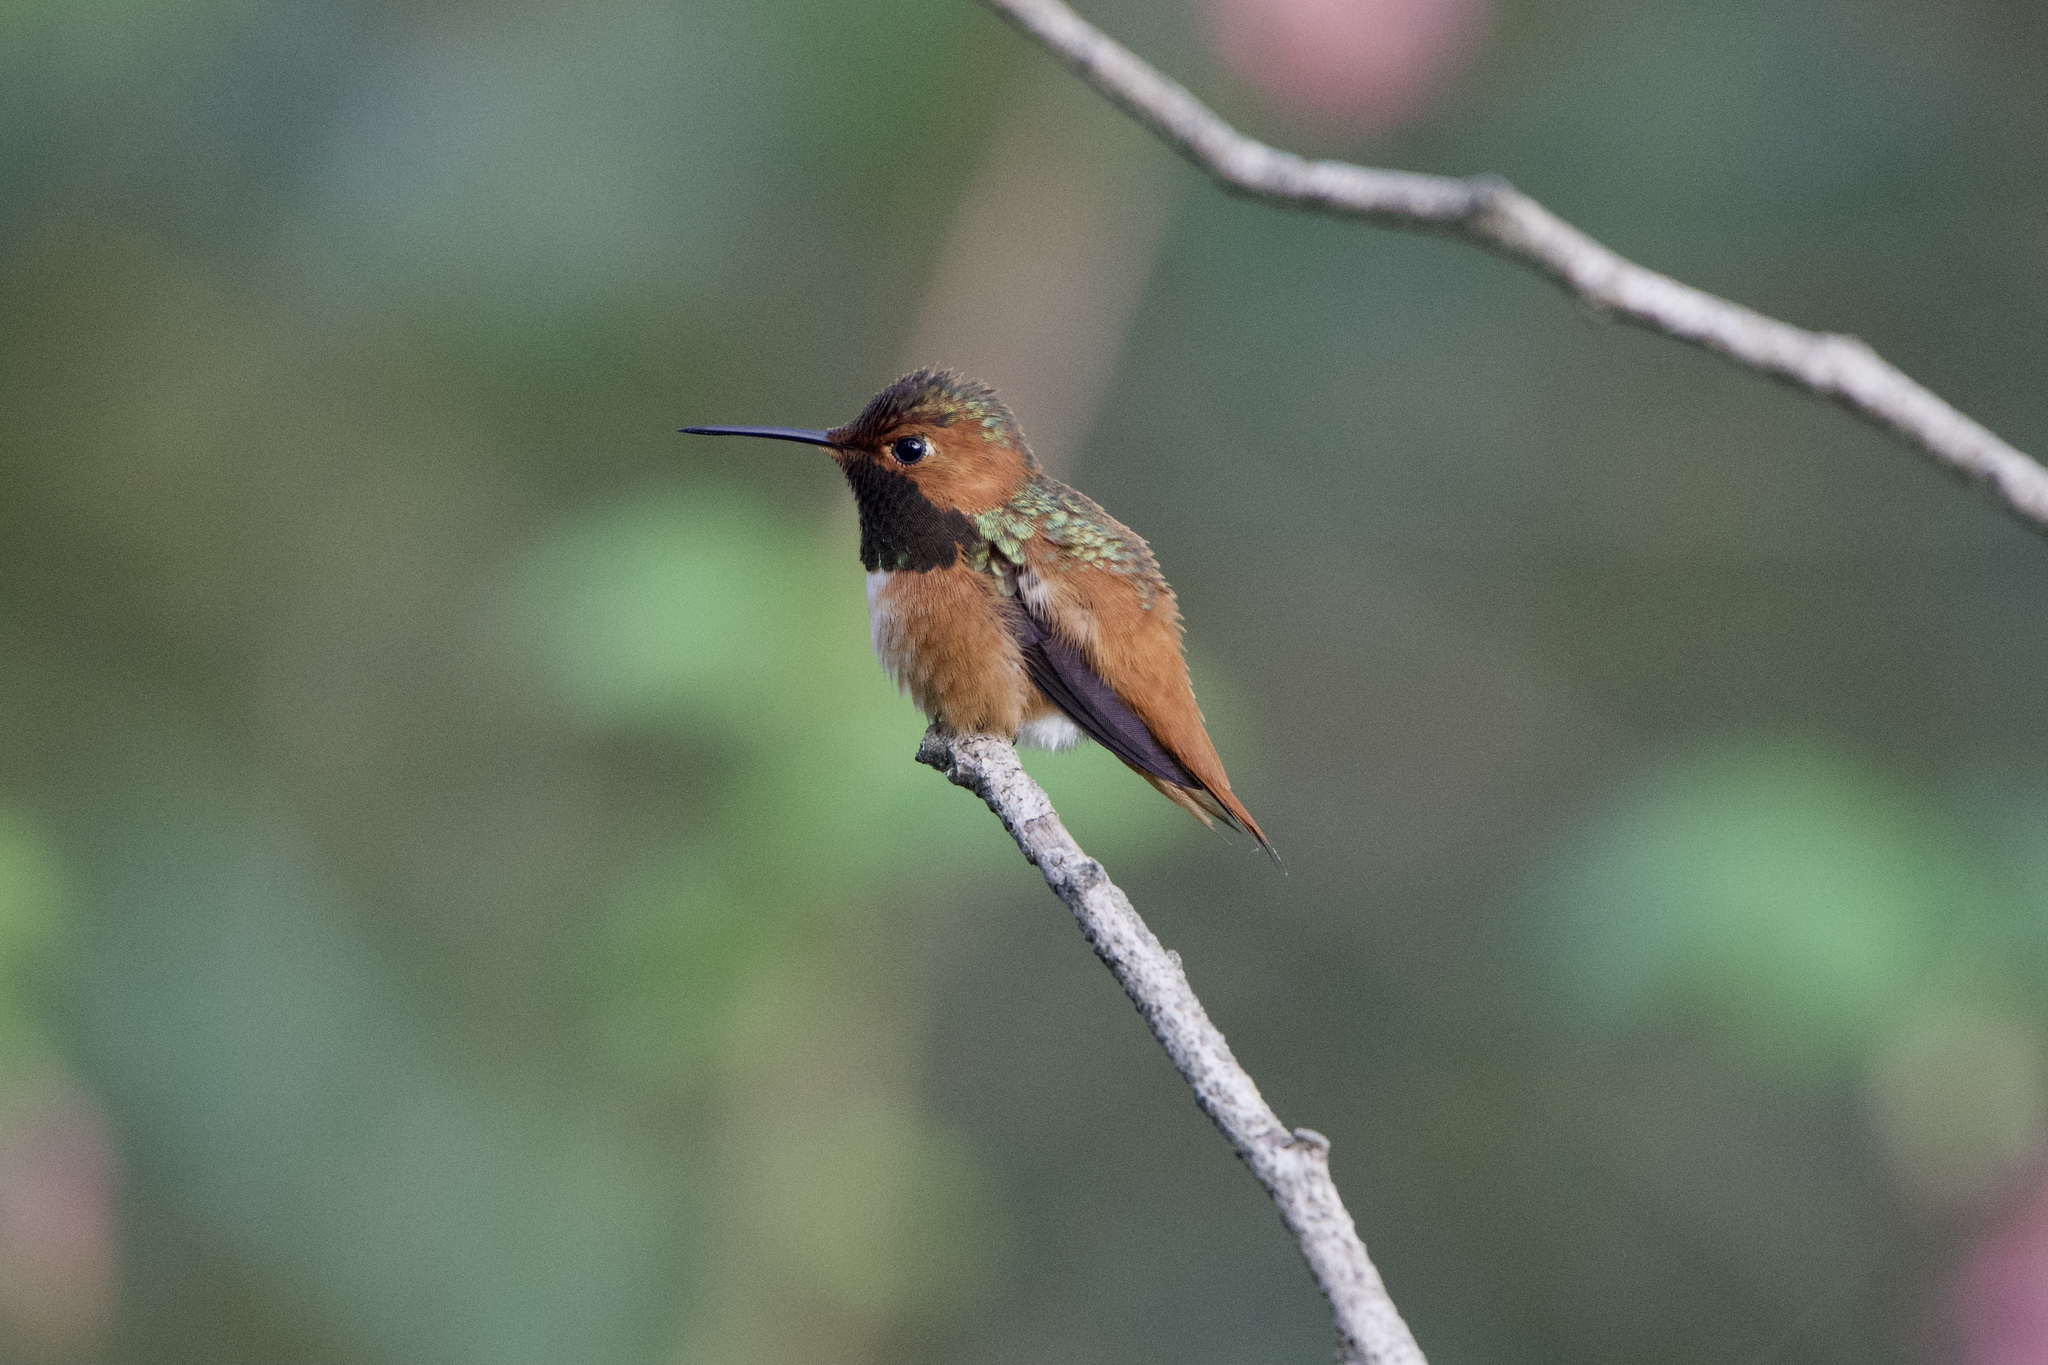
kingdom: Animalia
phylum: Chordata
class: Aves
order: Apodiformes
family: Trochilidae
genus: Selasphorus
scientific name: Selasphorus sasin
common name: Allen's hummingbird
